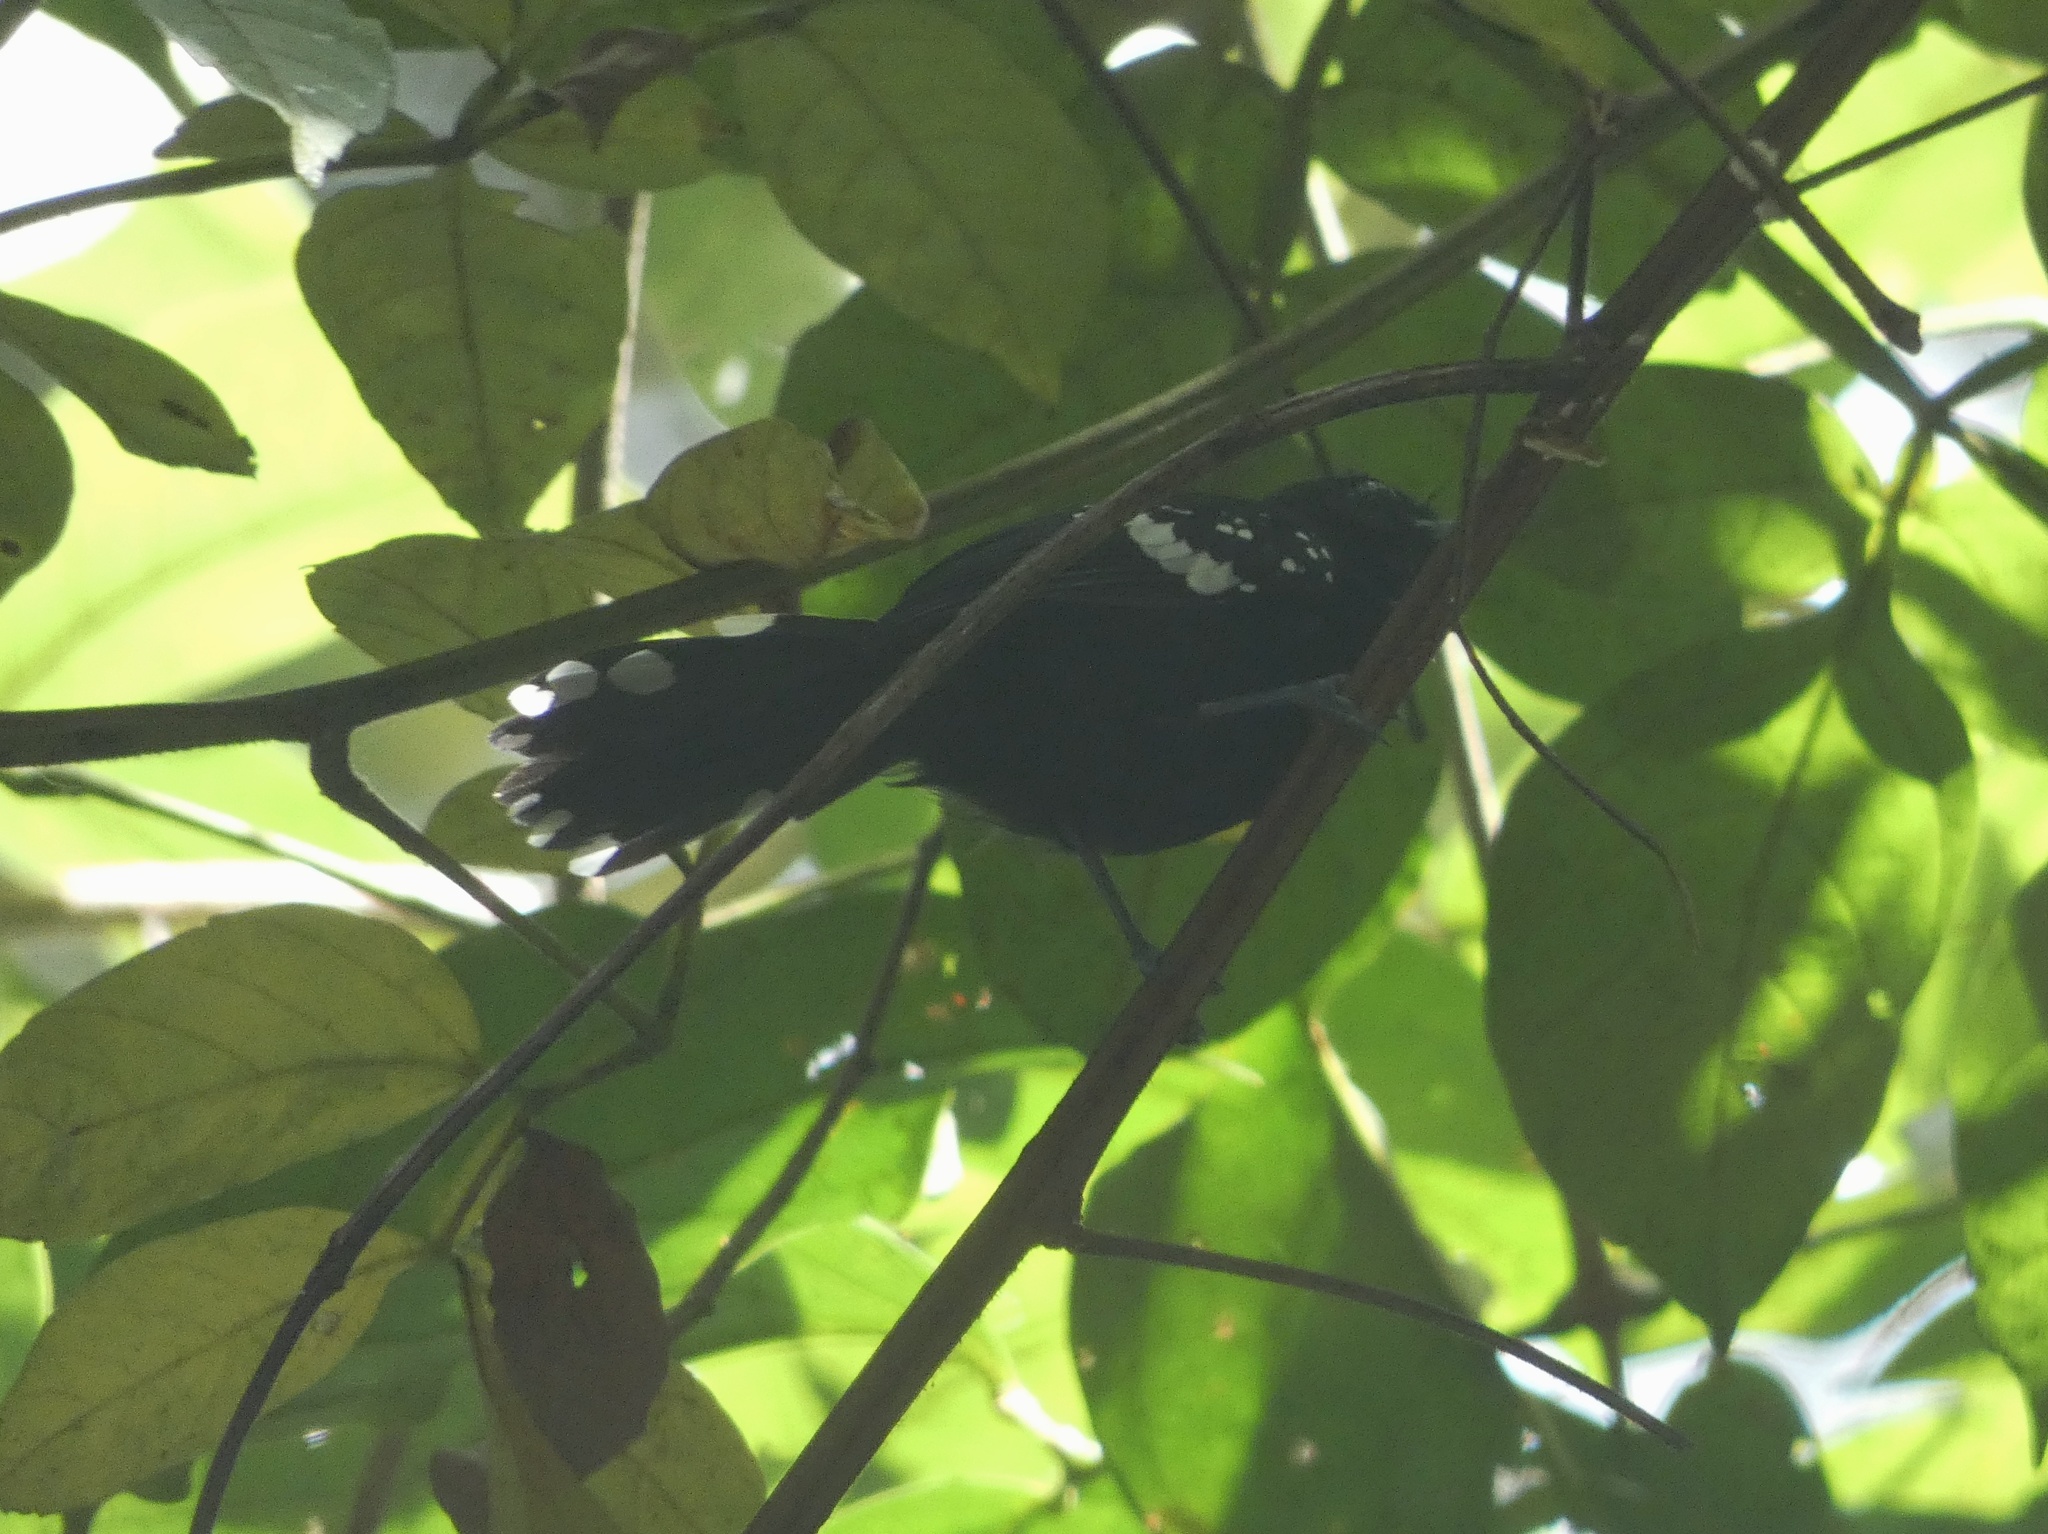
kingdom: Animalia
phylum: Chordata
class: Aves
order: Passeriformes
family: Thamnophilidae
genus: Microrhopias
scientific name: Microrhopias quixensis
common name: Dot-winged antwren
